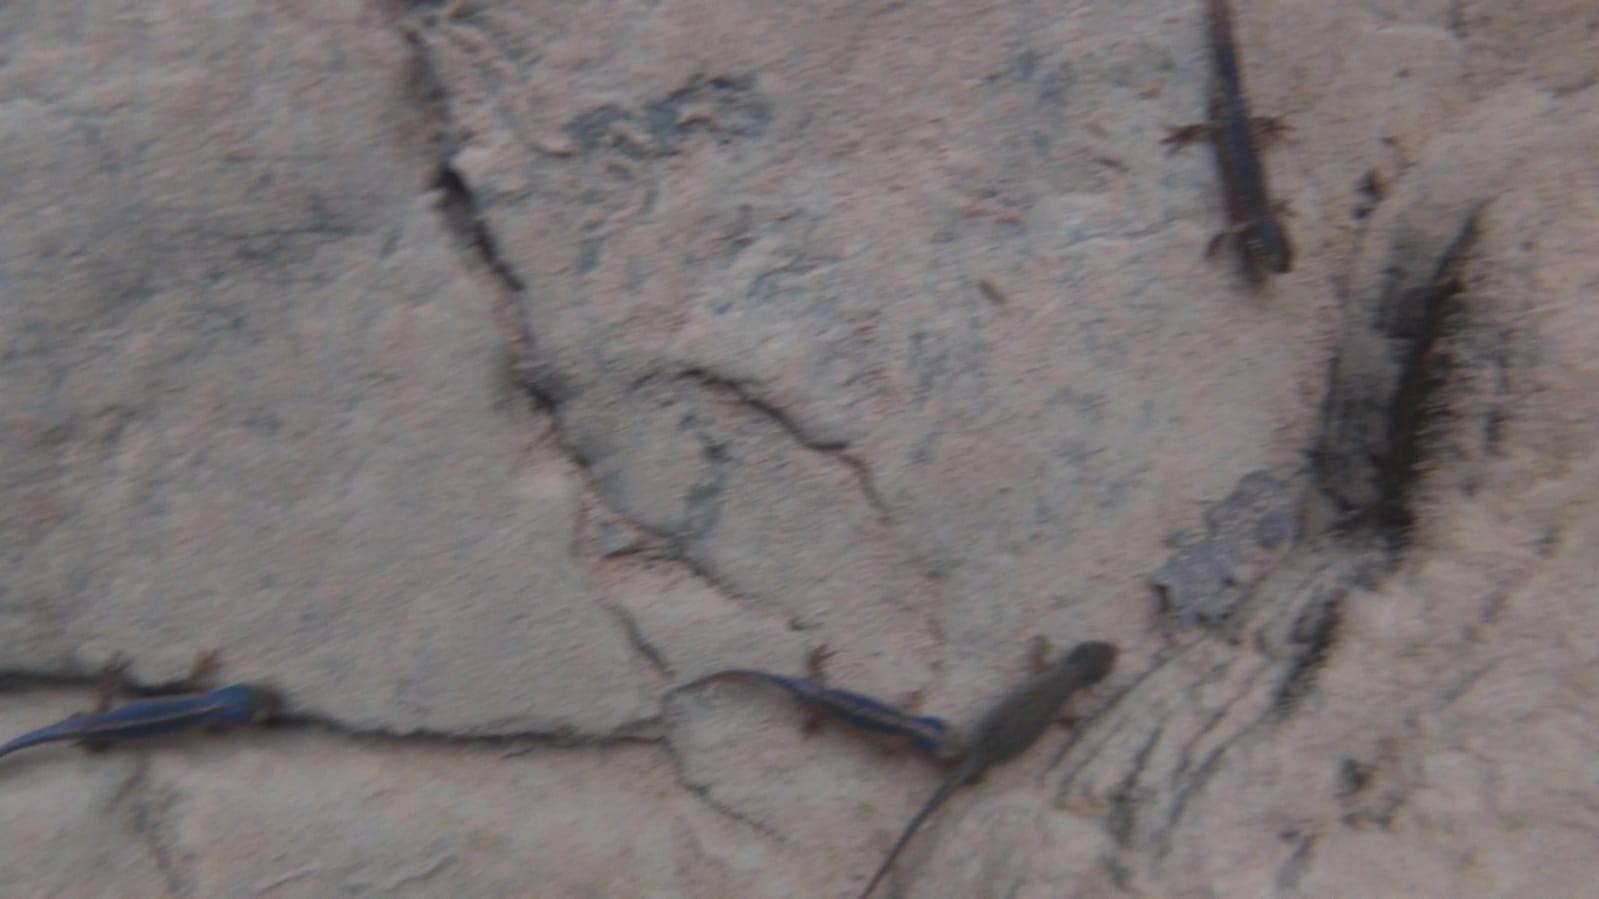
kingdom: Animalia
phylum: Chordata
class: Amphibia
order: Caudata
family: Salamandridae
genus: Ichthyosaura
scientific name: Ichthyosaura alpestris
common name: Alpine newt
